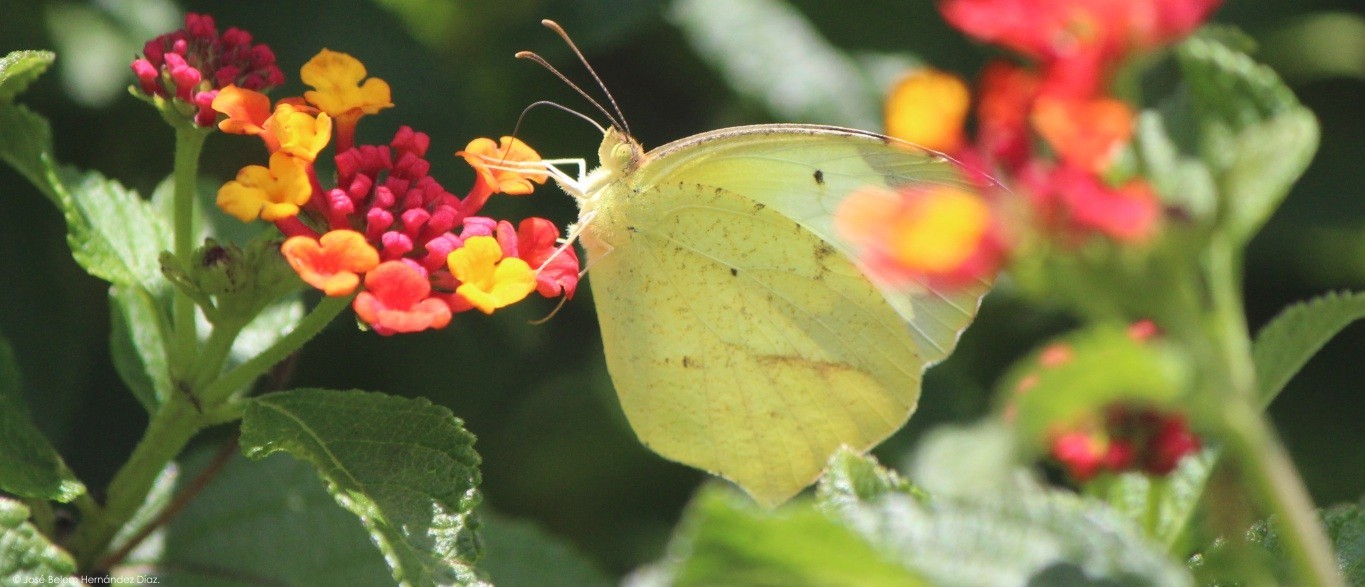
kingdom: Animalia
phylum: Arthropoda
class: Insecta
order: Lepidoptera
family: Pieridae
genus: Abaeis
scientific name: Abaeis mexicana
